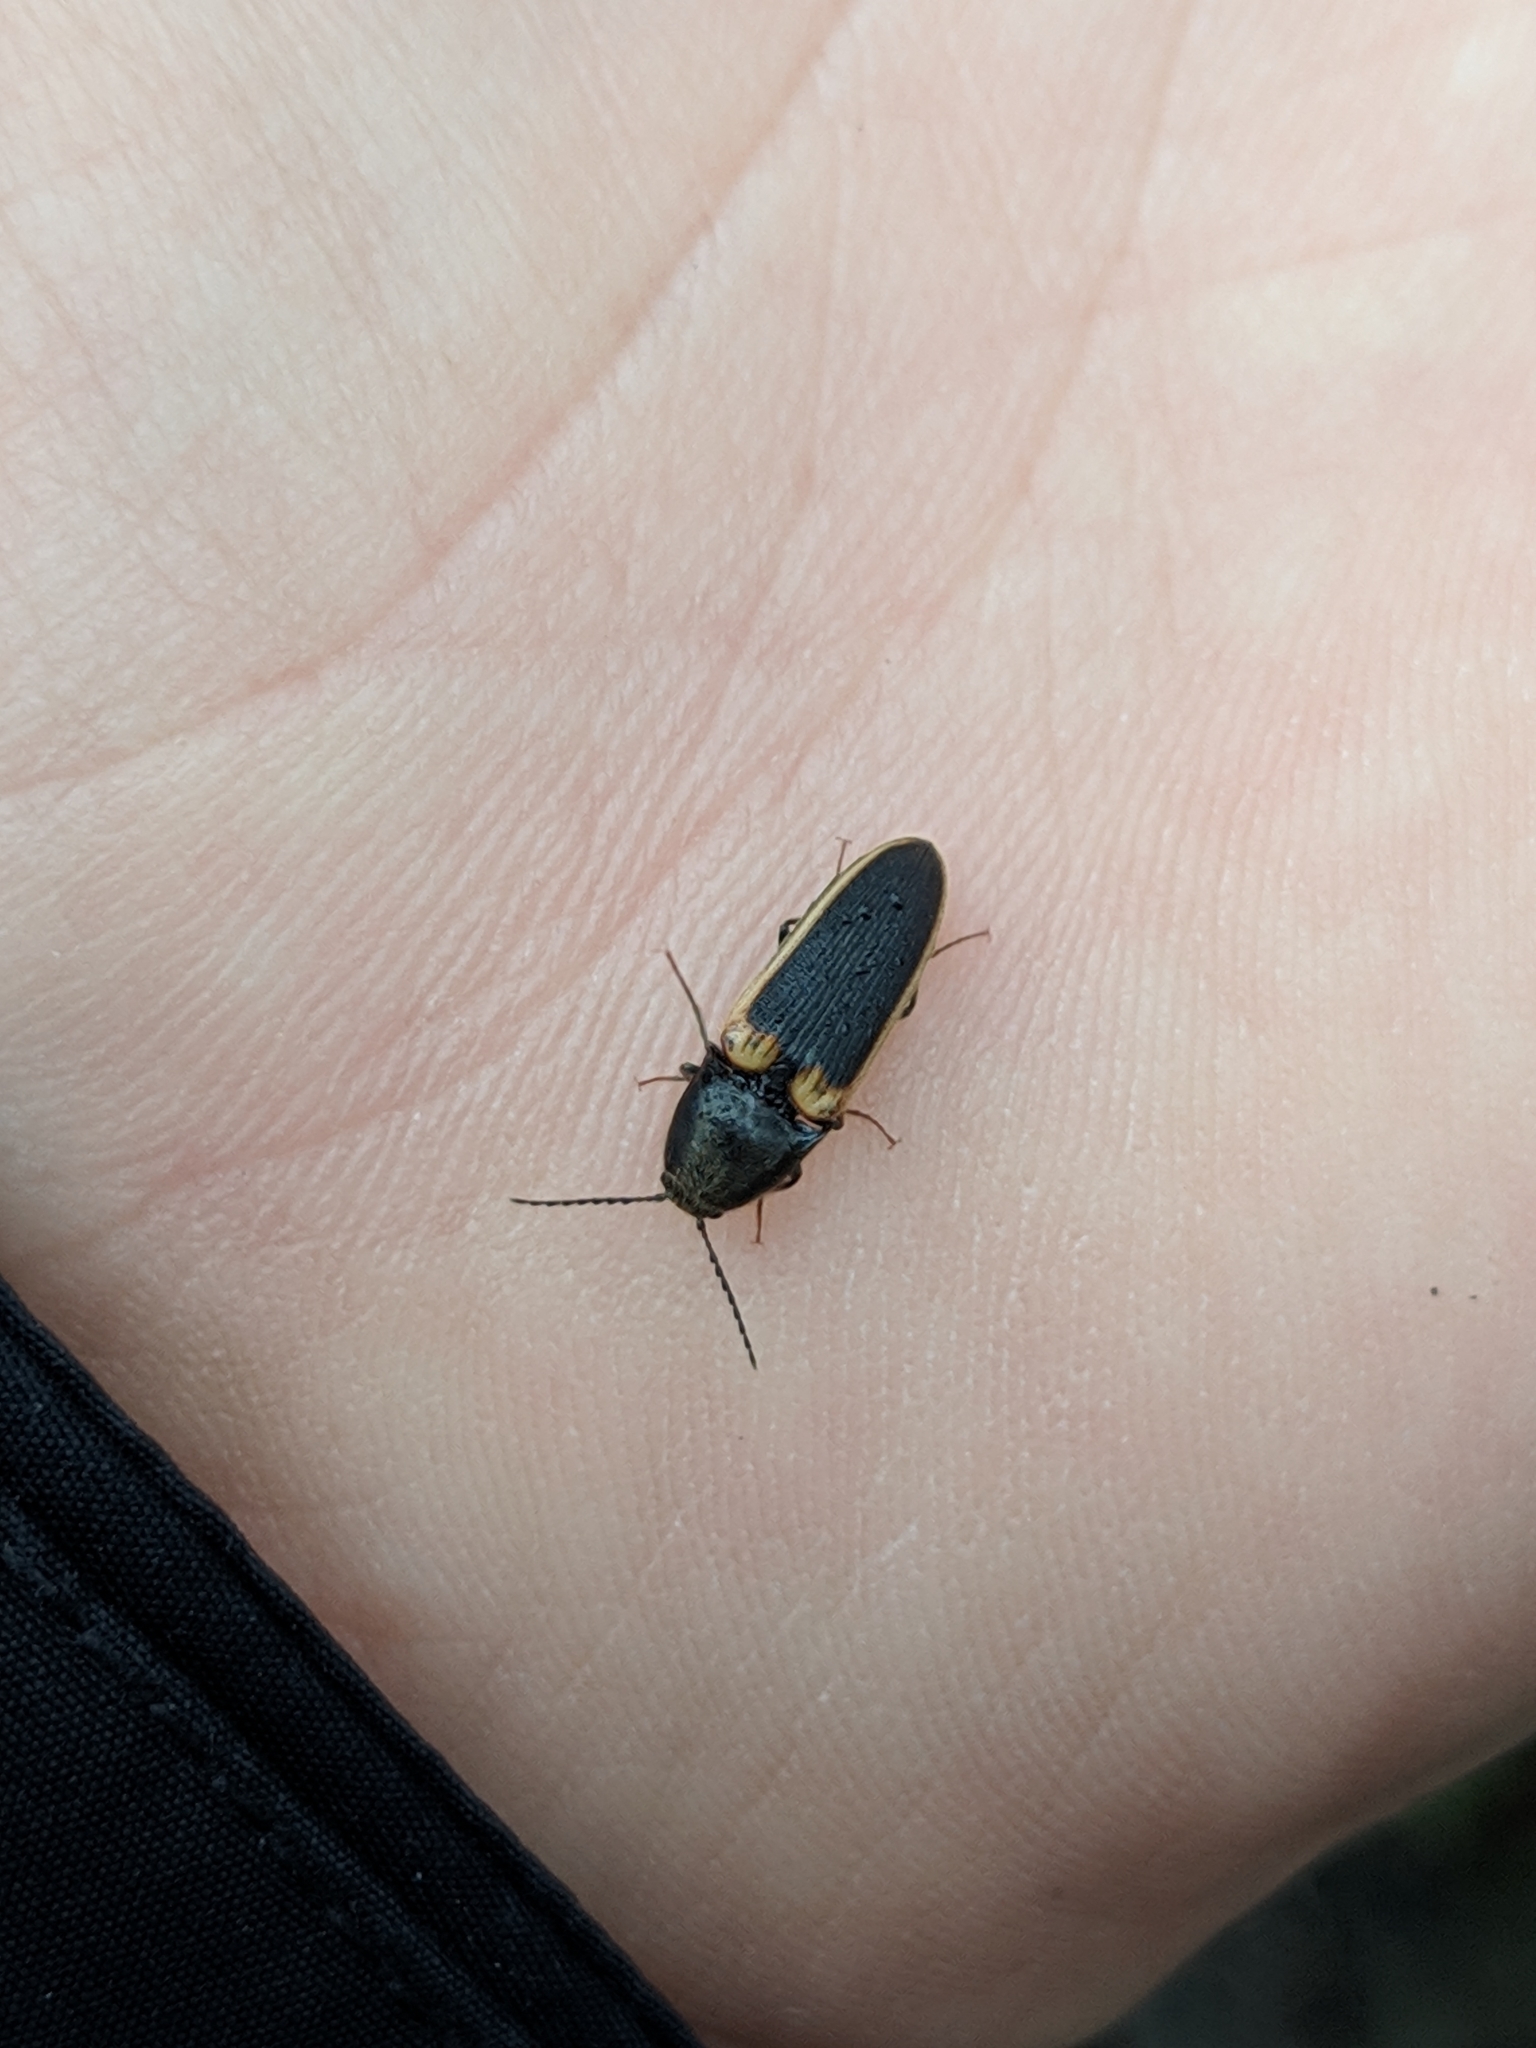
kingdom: Animalia
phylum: Arthropoda
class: Insecta
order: Coleoptera
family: Elateridae
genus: Ampedus
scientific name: Ampedus oblessus
